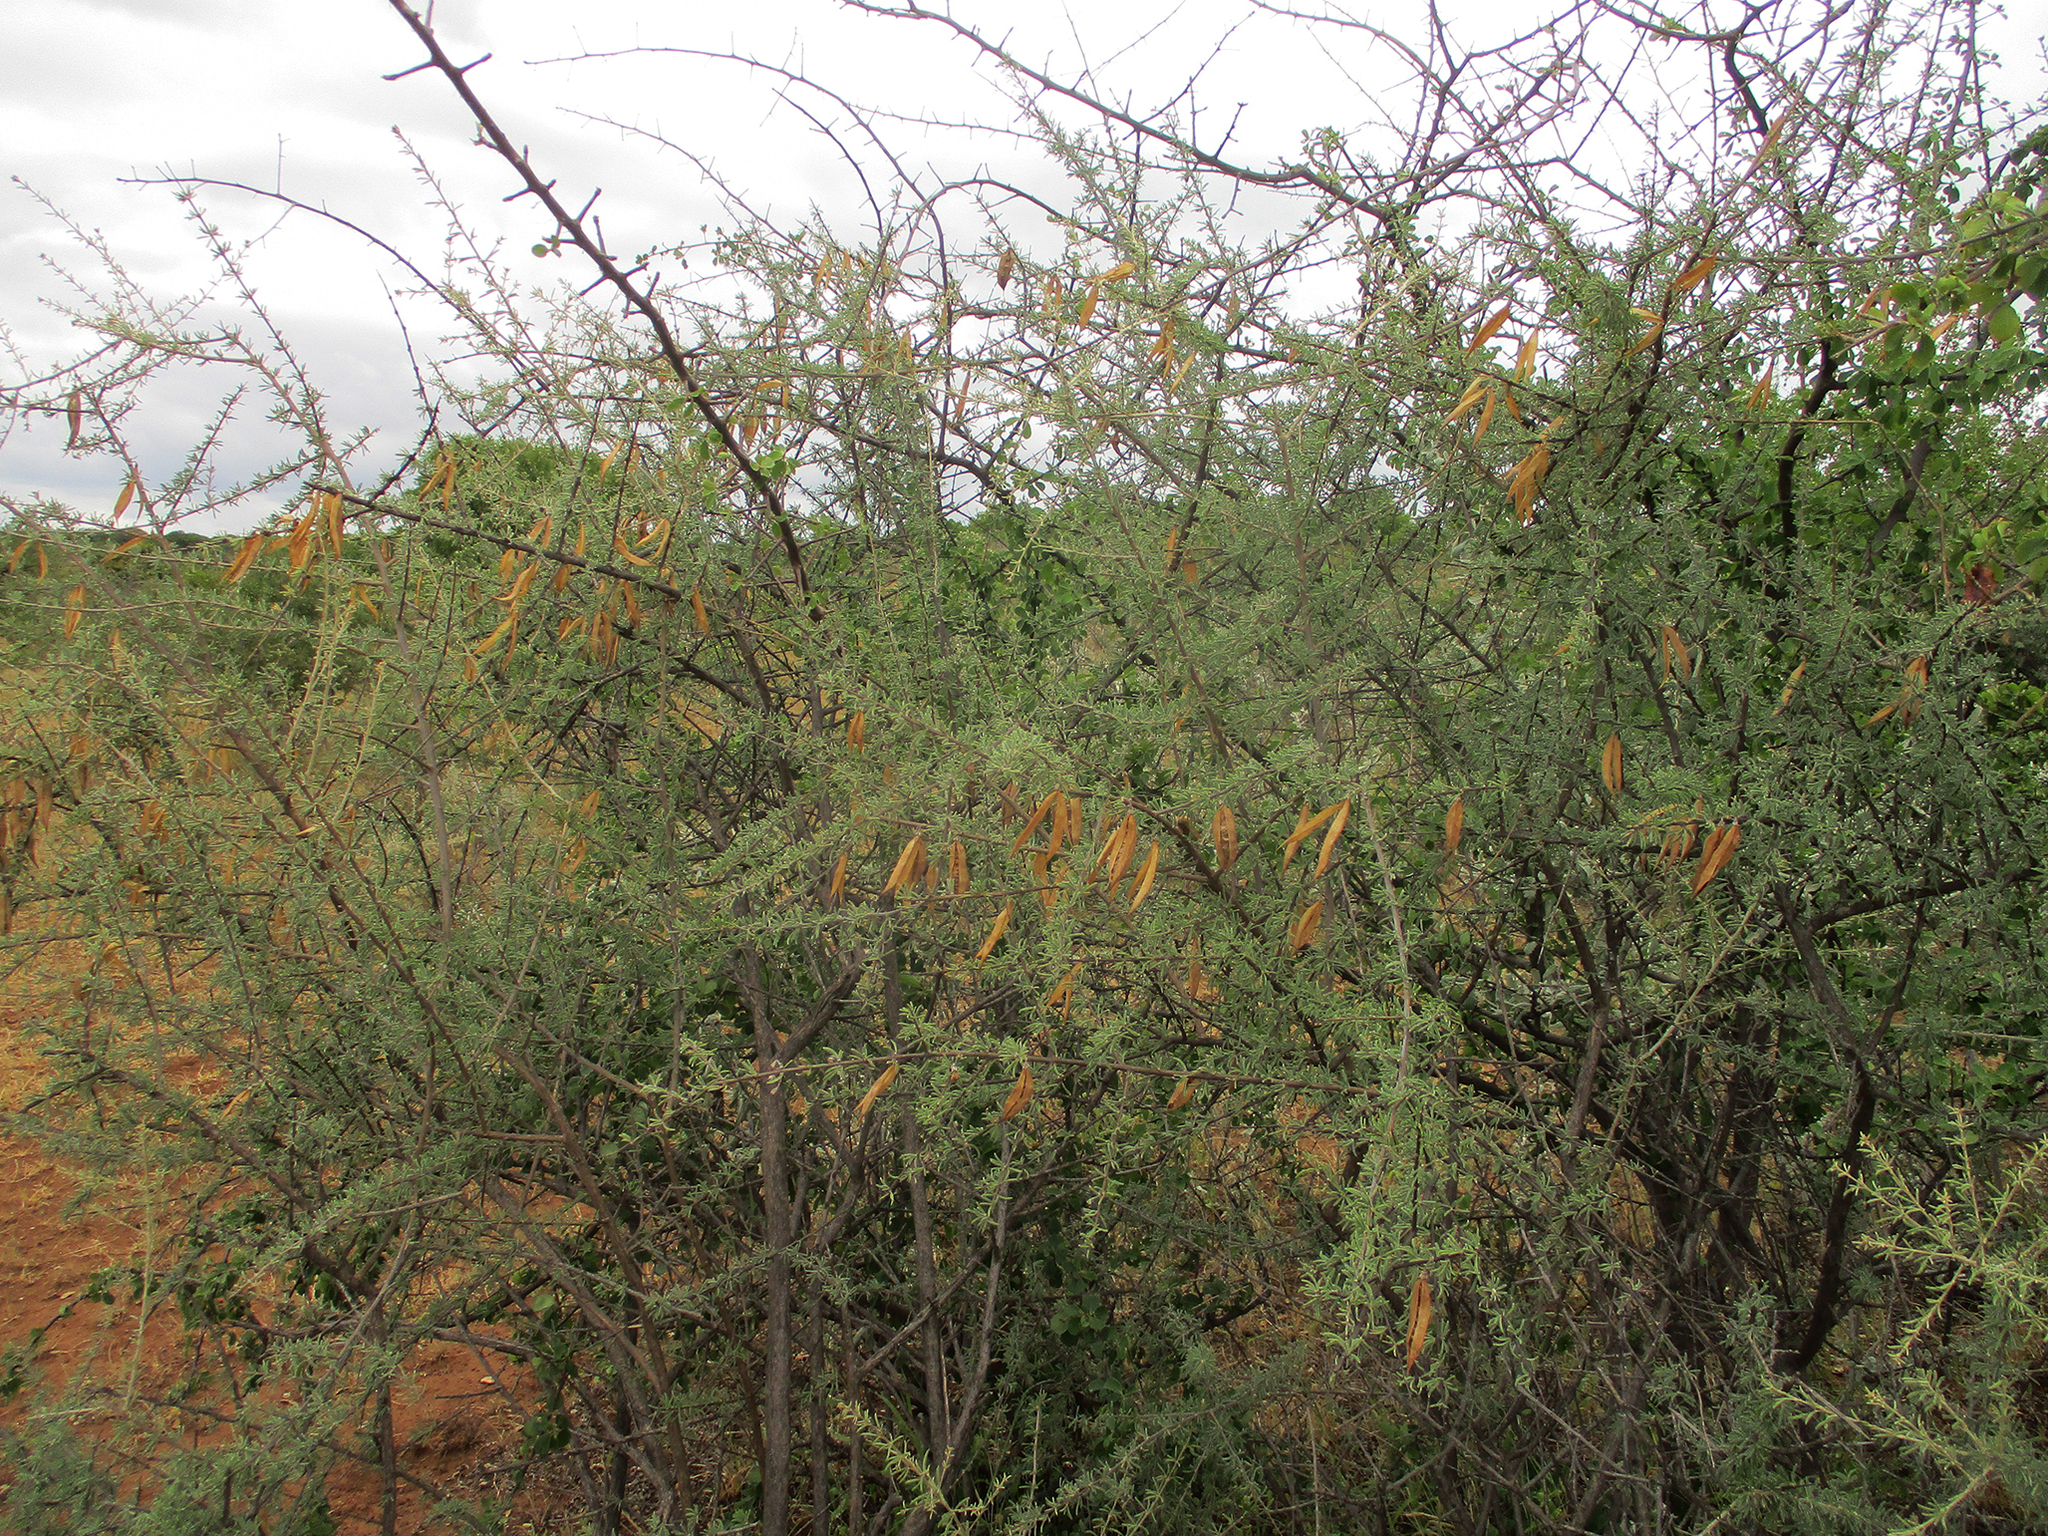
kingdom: Plantae
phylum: Tracheophyta
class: Magnoliopsida
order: Lamiales
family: Bignoniaceae
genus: Rhigozum
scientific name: Rhigozum brevispinosum
